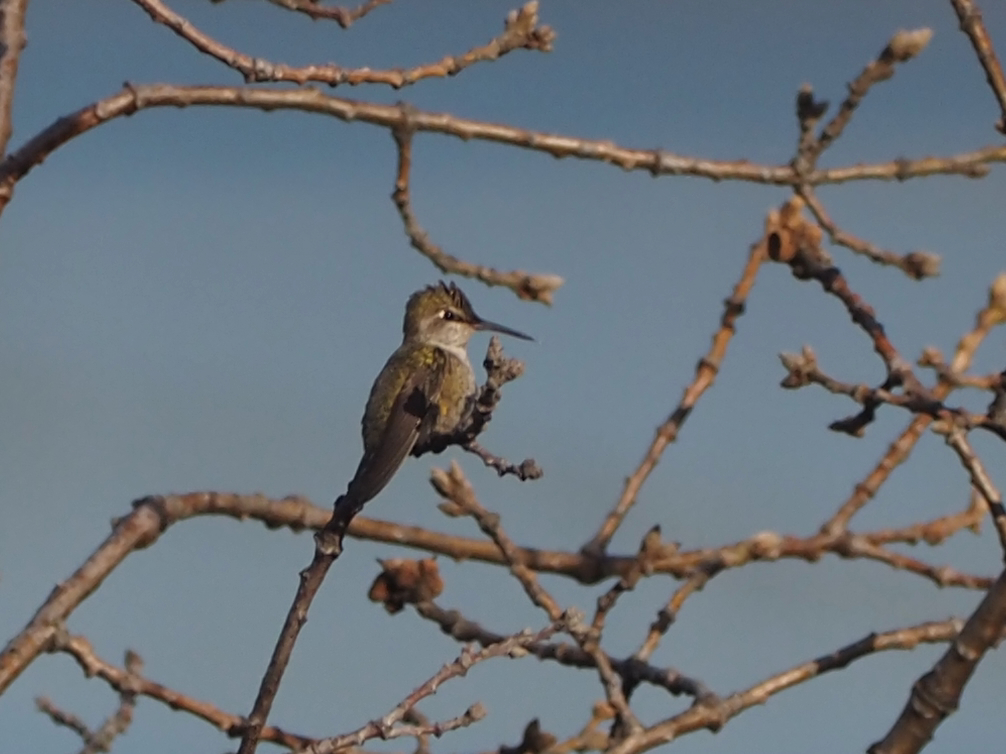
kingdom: Animalia
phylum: Chordata
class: Aves
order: Apodiformes
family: Trochilidae
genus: Calypte
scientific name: Calypte anna
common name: Anna's hummingbird
